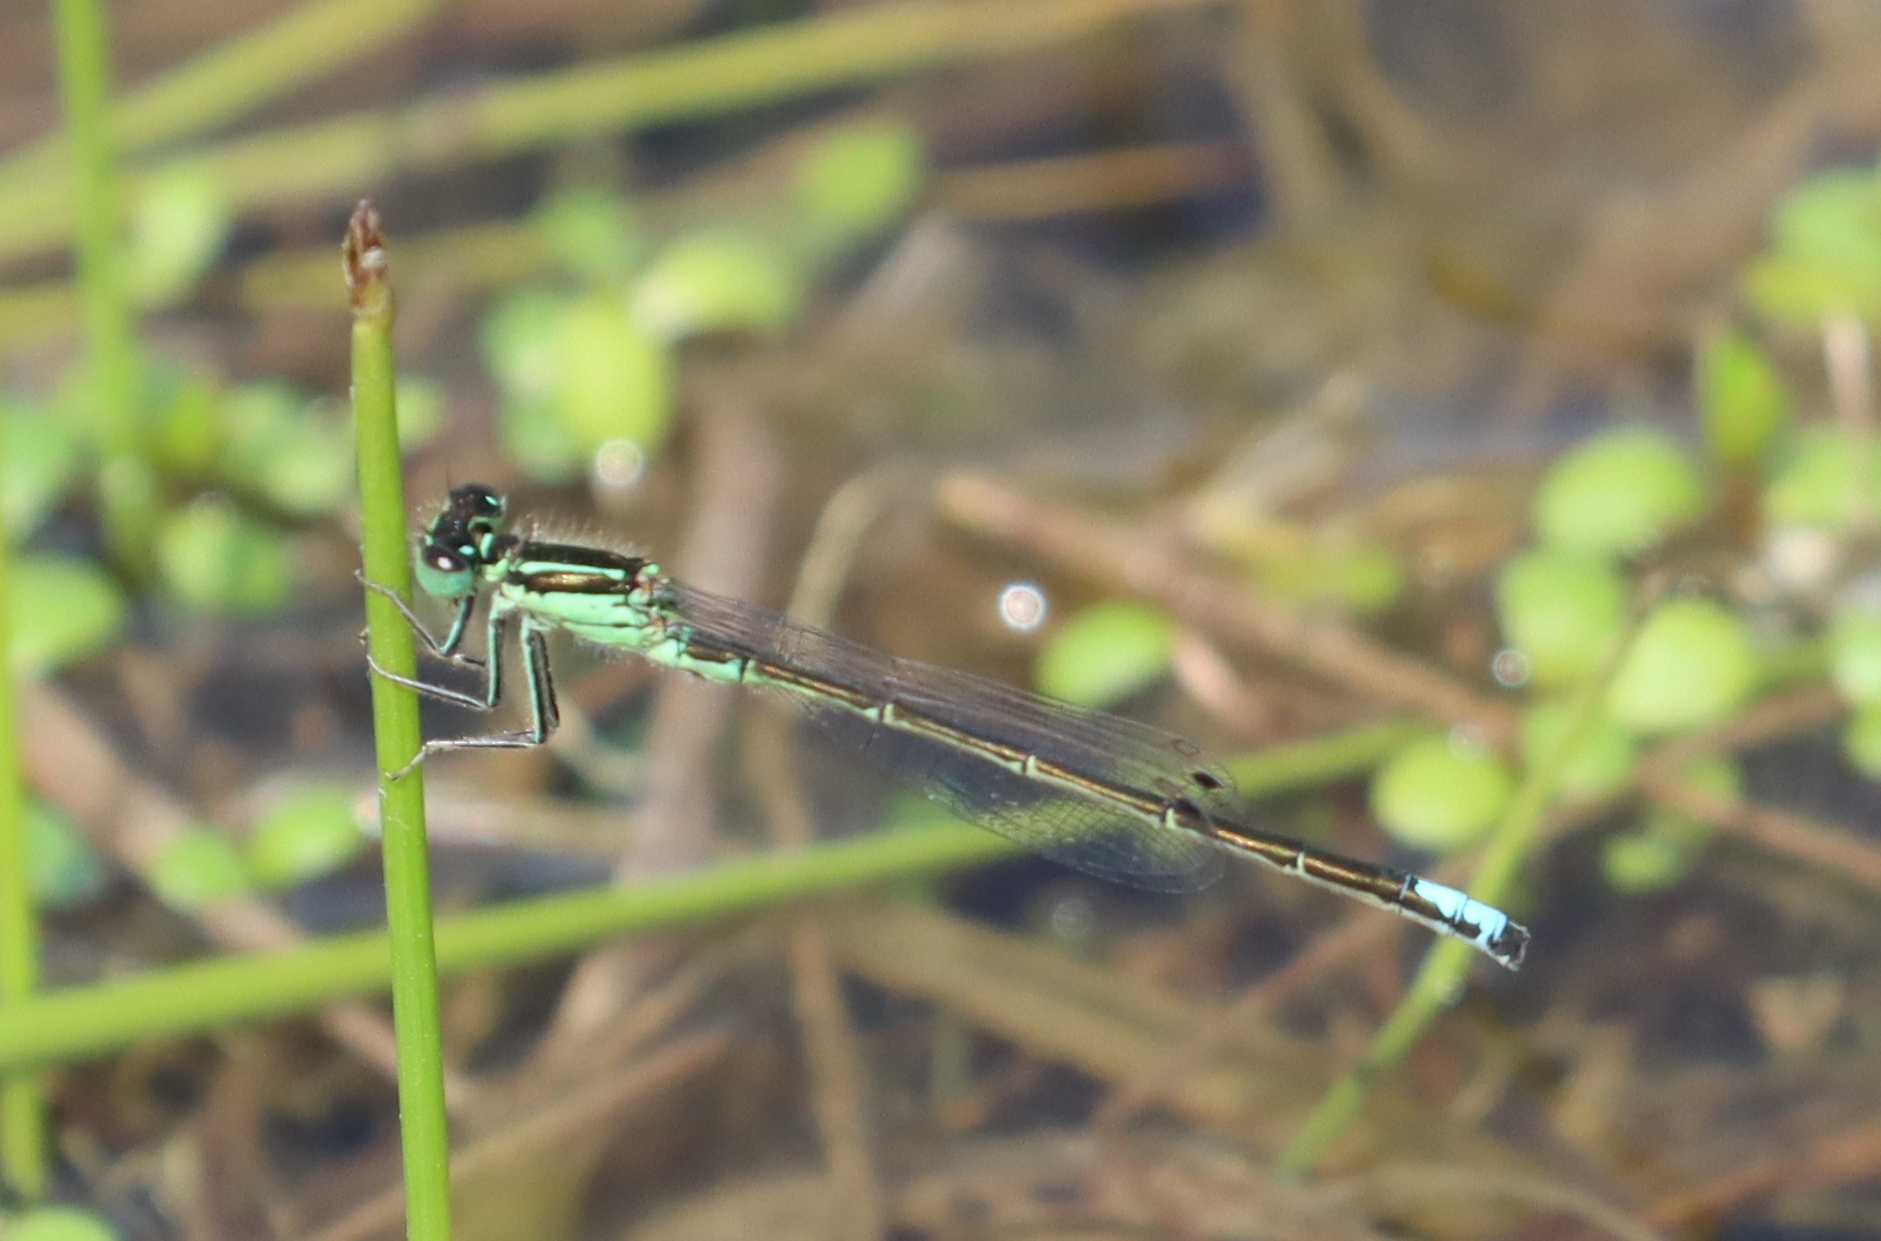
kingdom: Animalia
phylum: Arthropoda
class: Insecta
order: Odonata
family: Coenagrionidae
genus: Ischnura
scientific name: Ischnura verticalis
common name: Eastern forktail
